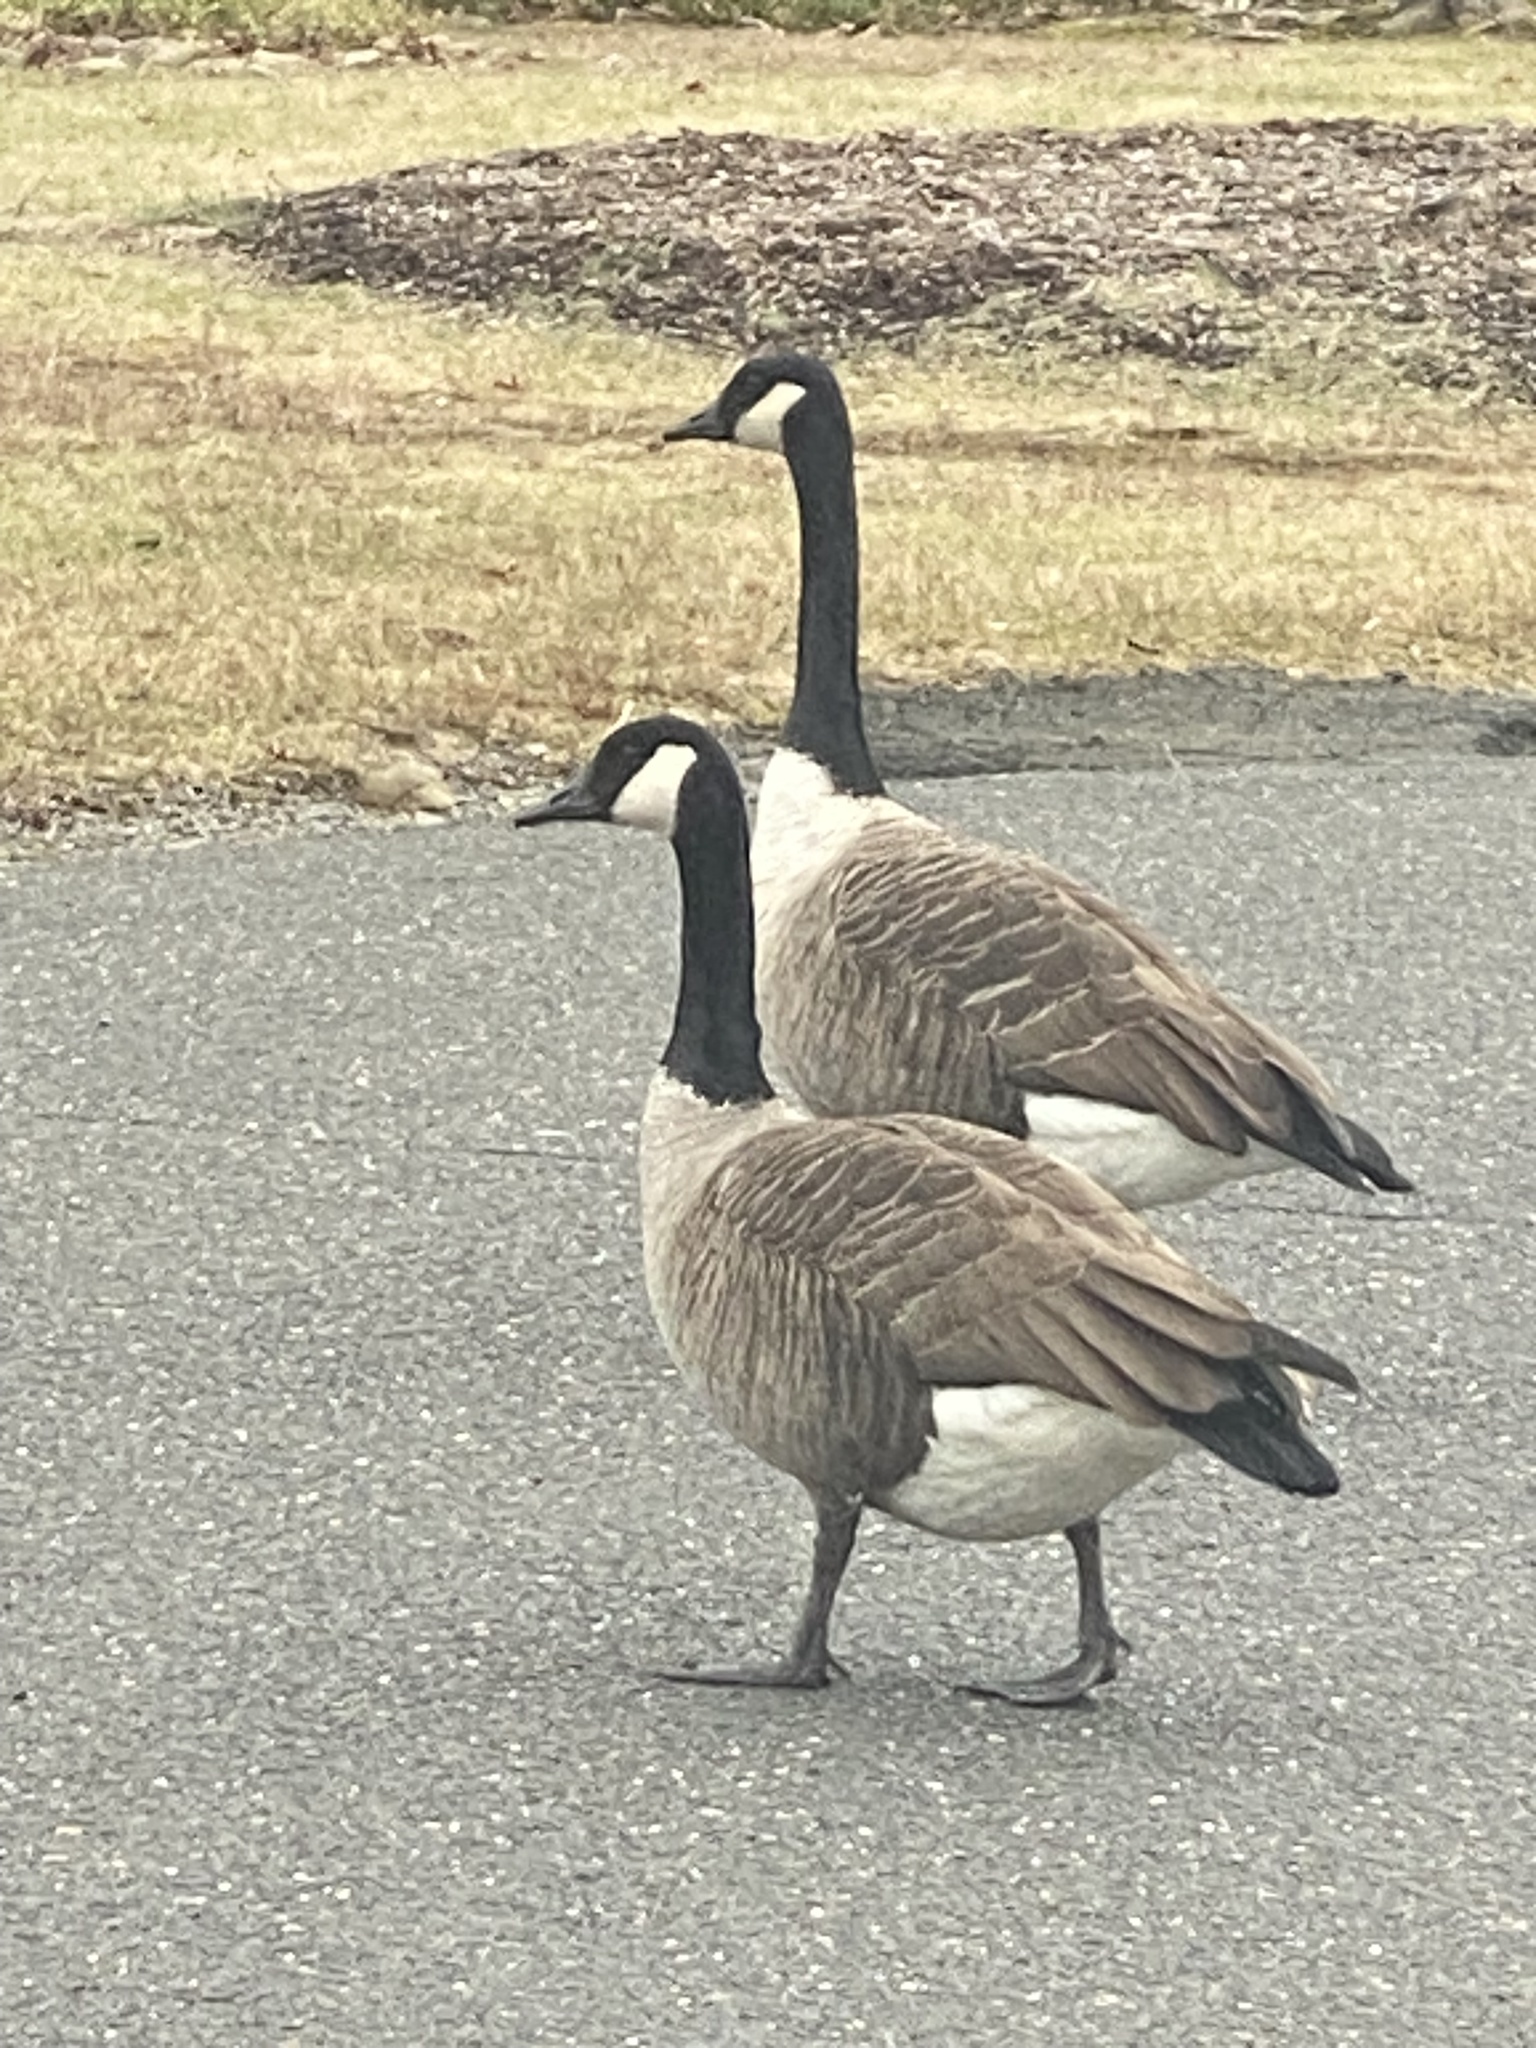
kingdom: Animalia
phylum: Chordata
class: Aves
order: Anseriformes
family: Anatidae
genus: Branta
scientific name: Branta canadensis
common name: Canada goose
